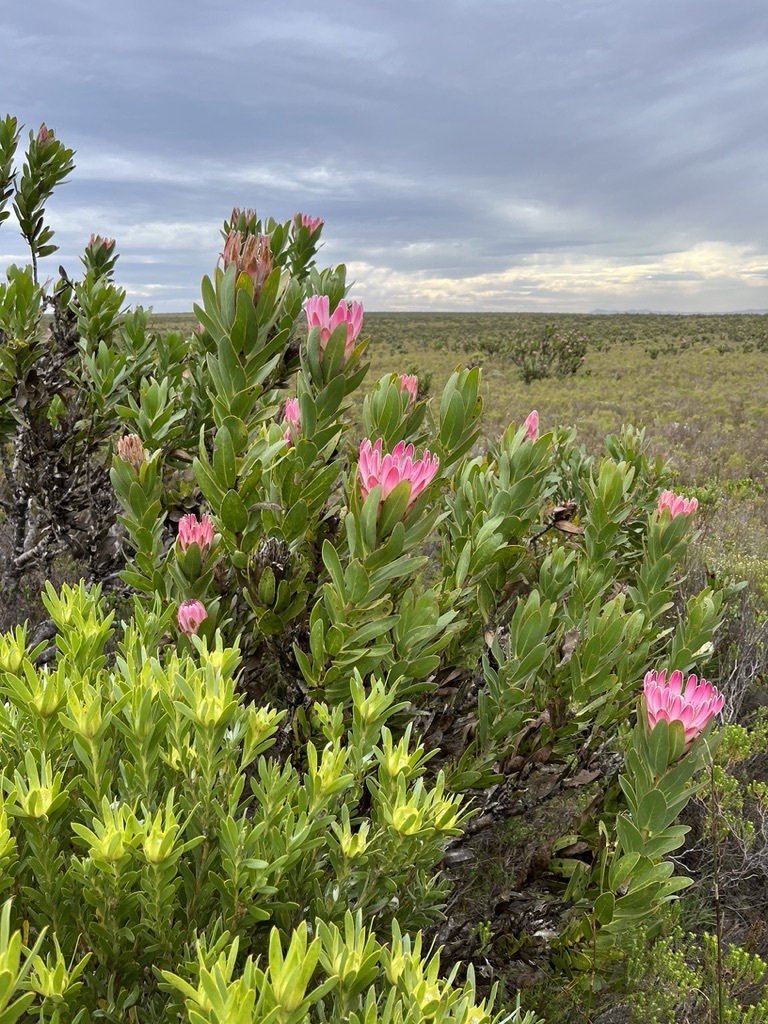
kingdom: Plantae
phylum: Tracheophyta
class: Magnoliopsida
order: Proteales
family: Proteaceae
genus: Protea
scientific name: Protea compacta
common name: Bot river protea
